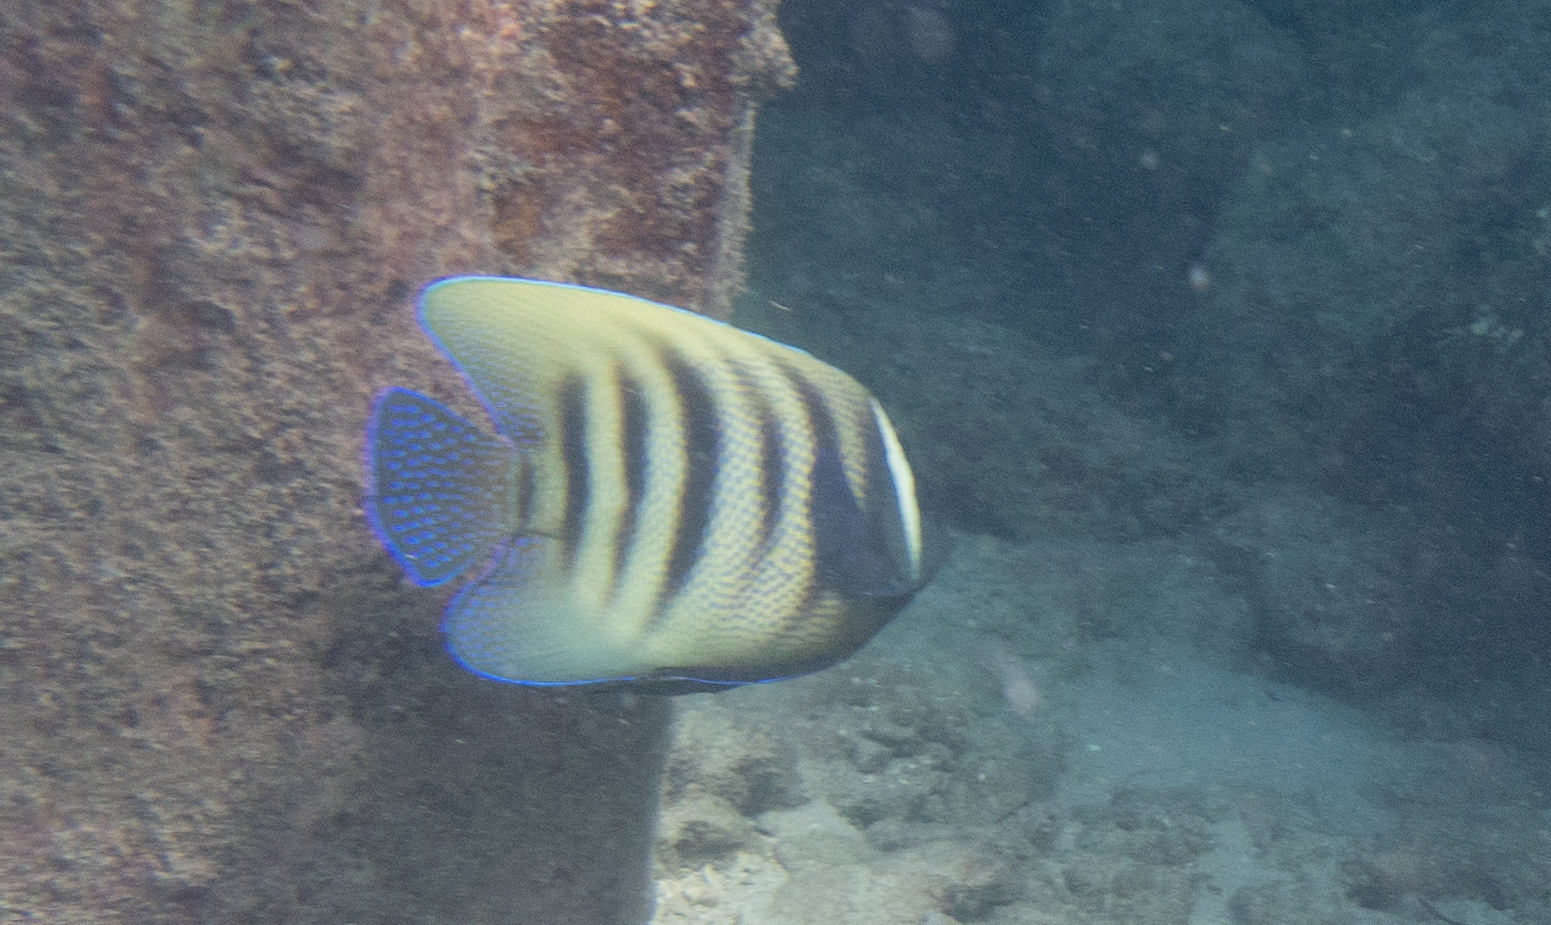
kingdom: Animalia
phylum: Chordata
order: Perciformes
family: Pomacanthidae
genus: Pomacanthus
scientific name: Pomacanthus sexstriatus
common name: Six-banded angelfish
